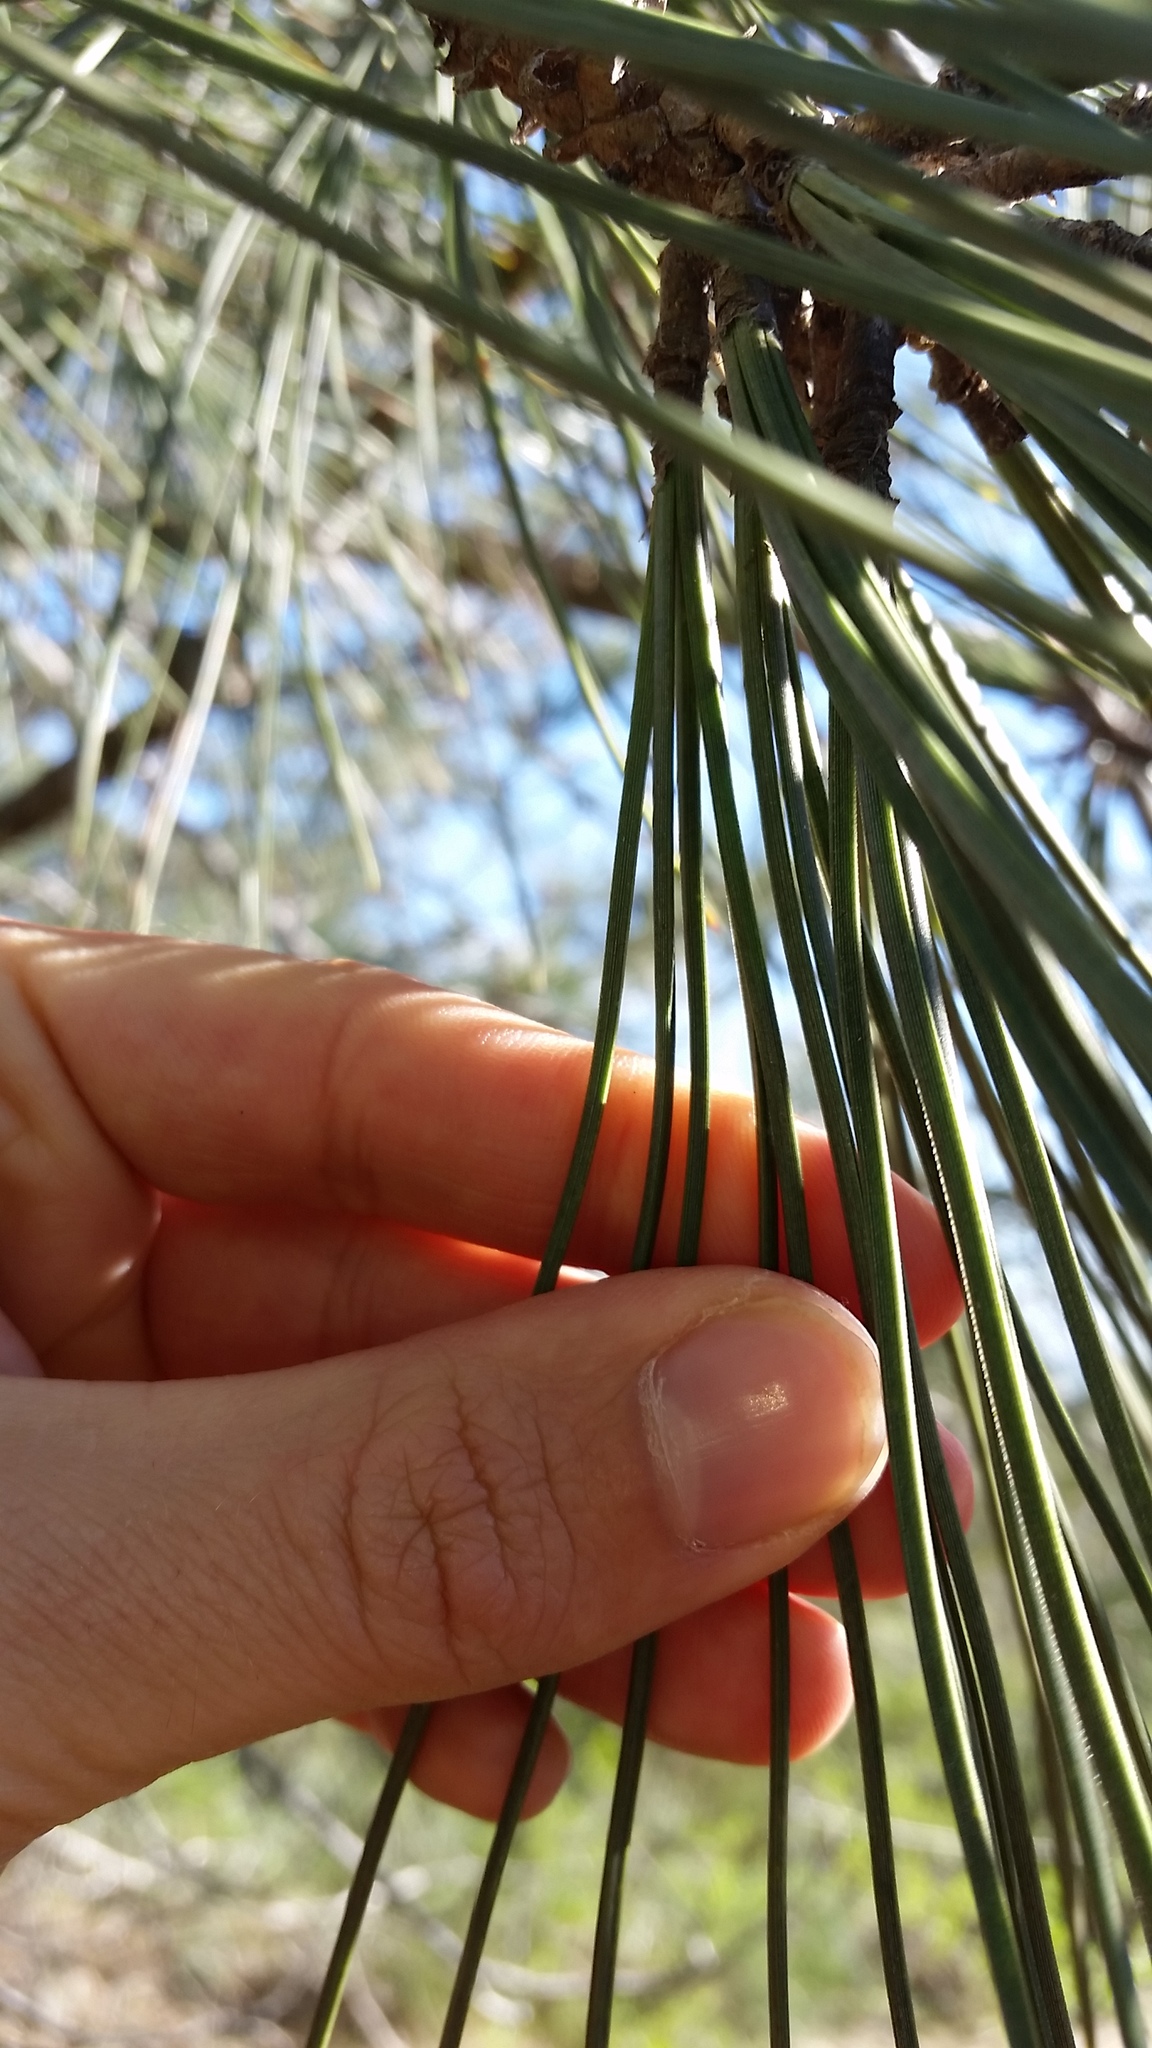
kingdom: Plantae
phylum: Tracheophyta
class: Pinopsida
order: Pinales
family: Pinaceae
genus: Pinus
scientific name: Pinus torreyana
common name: Torrey pine
